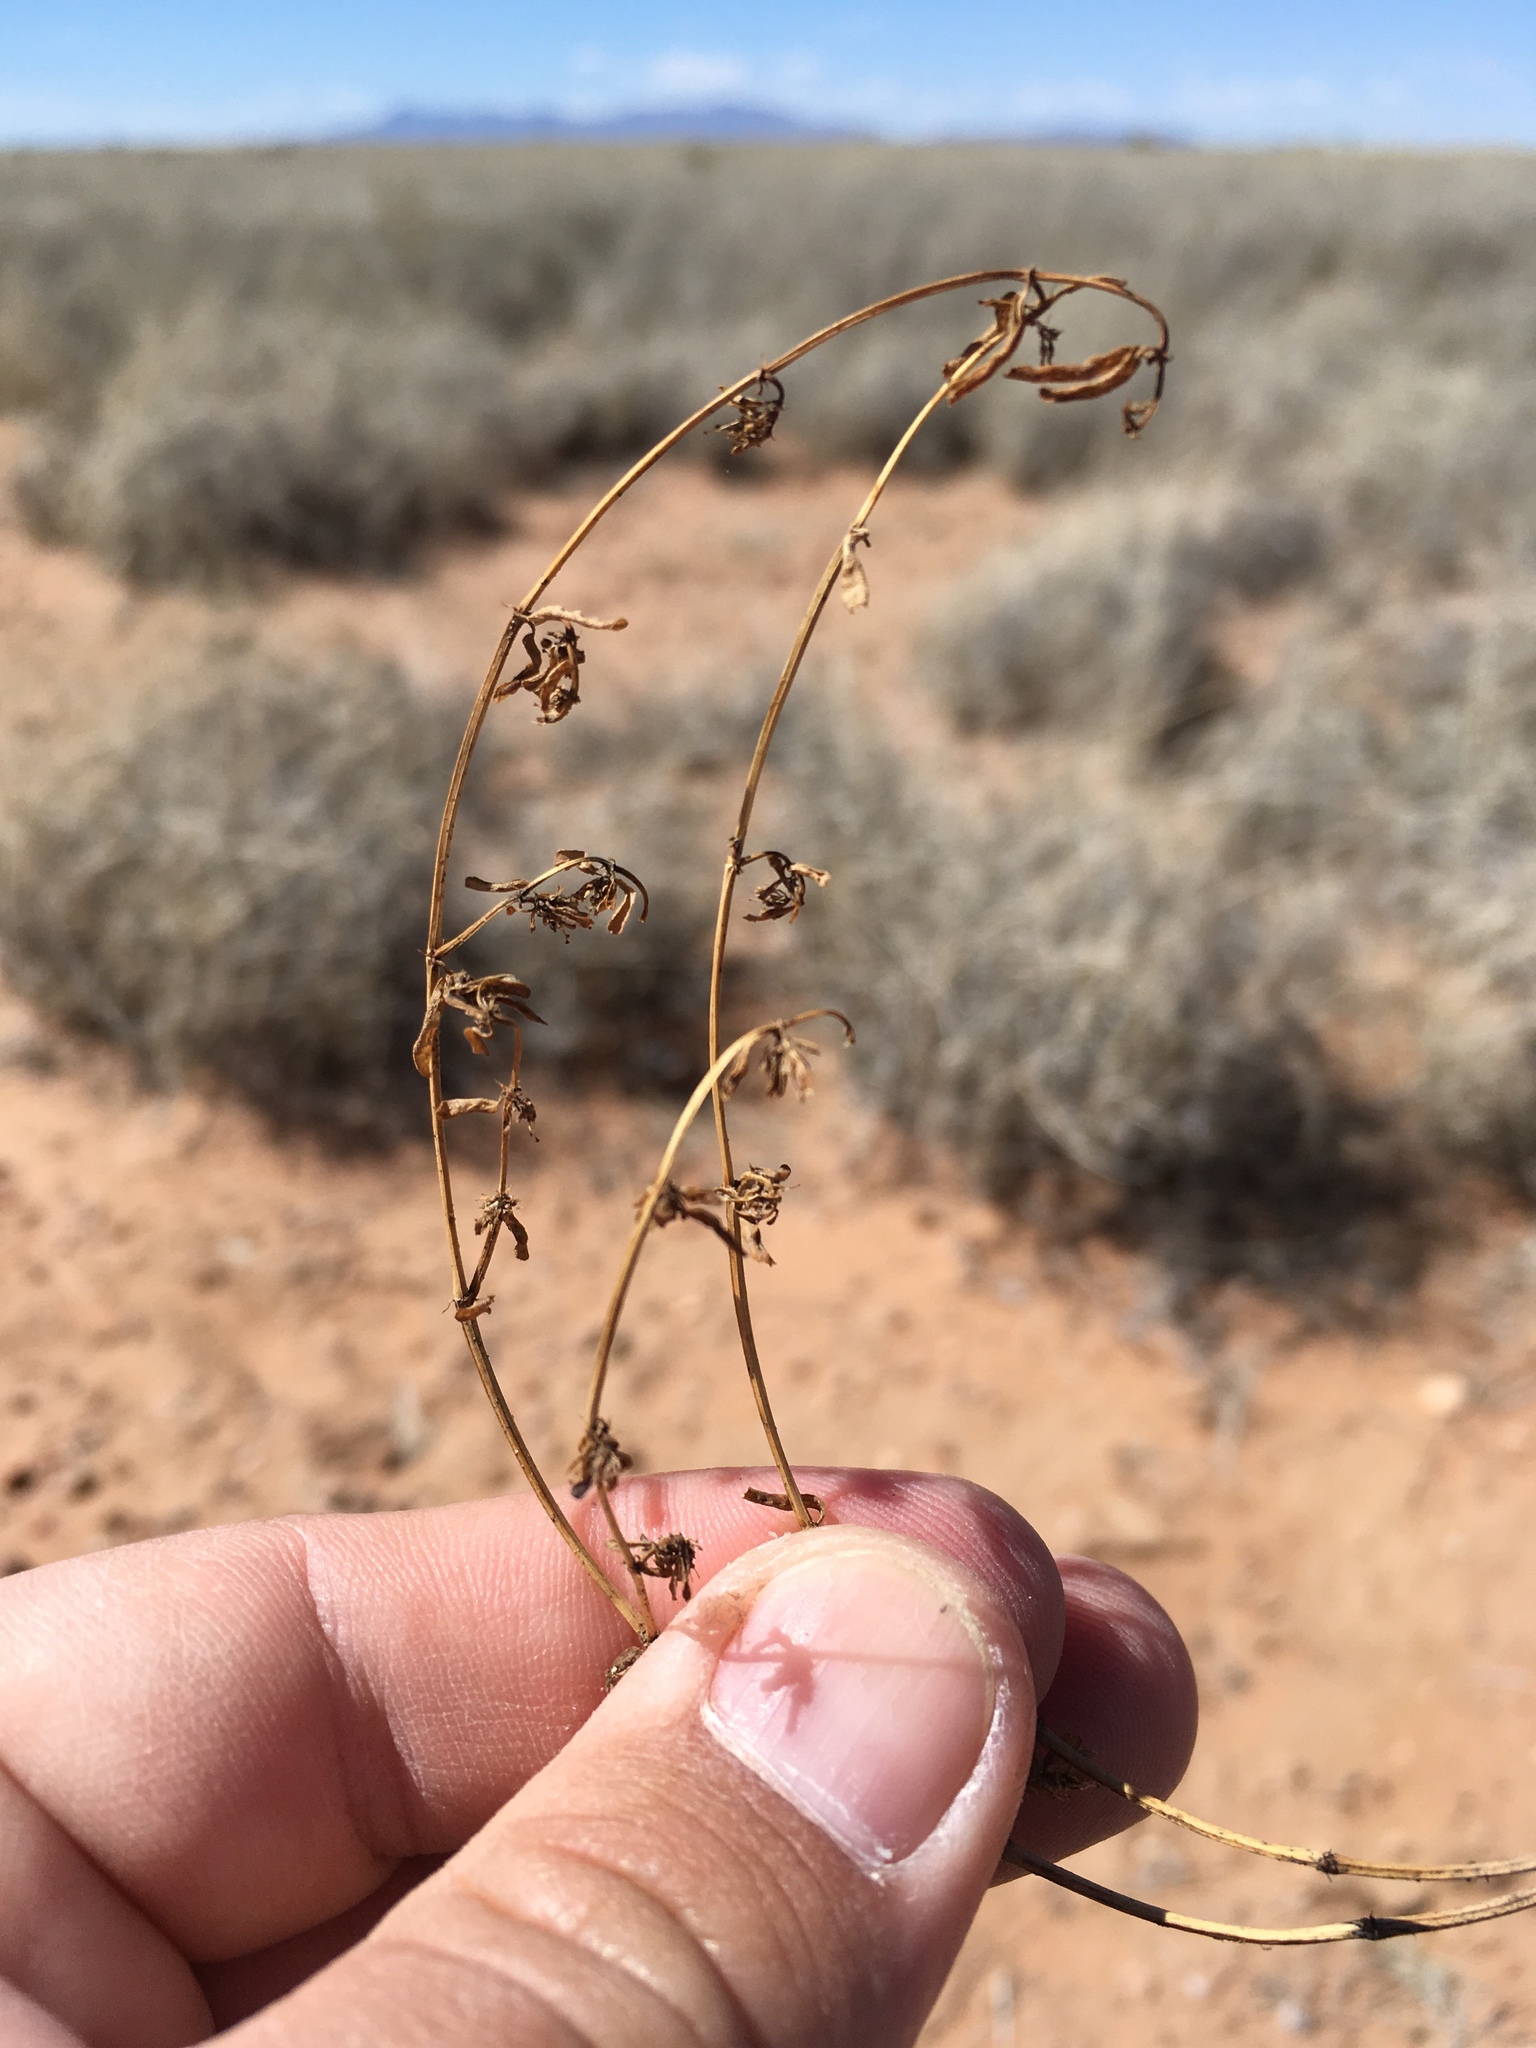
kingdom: Plantae
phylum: Tracheophyta
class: Magnoliopsida
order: Malpighiales
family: Euphorbiaceae
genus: Euphorbia
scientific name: Euphorbia serpillifolia
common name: Thyme-leaf spurge
